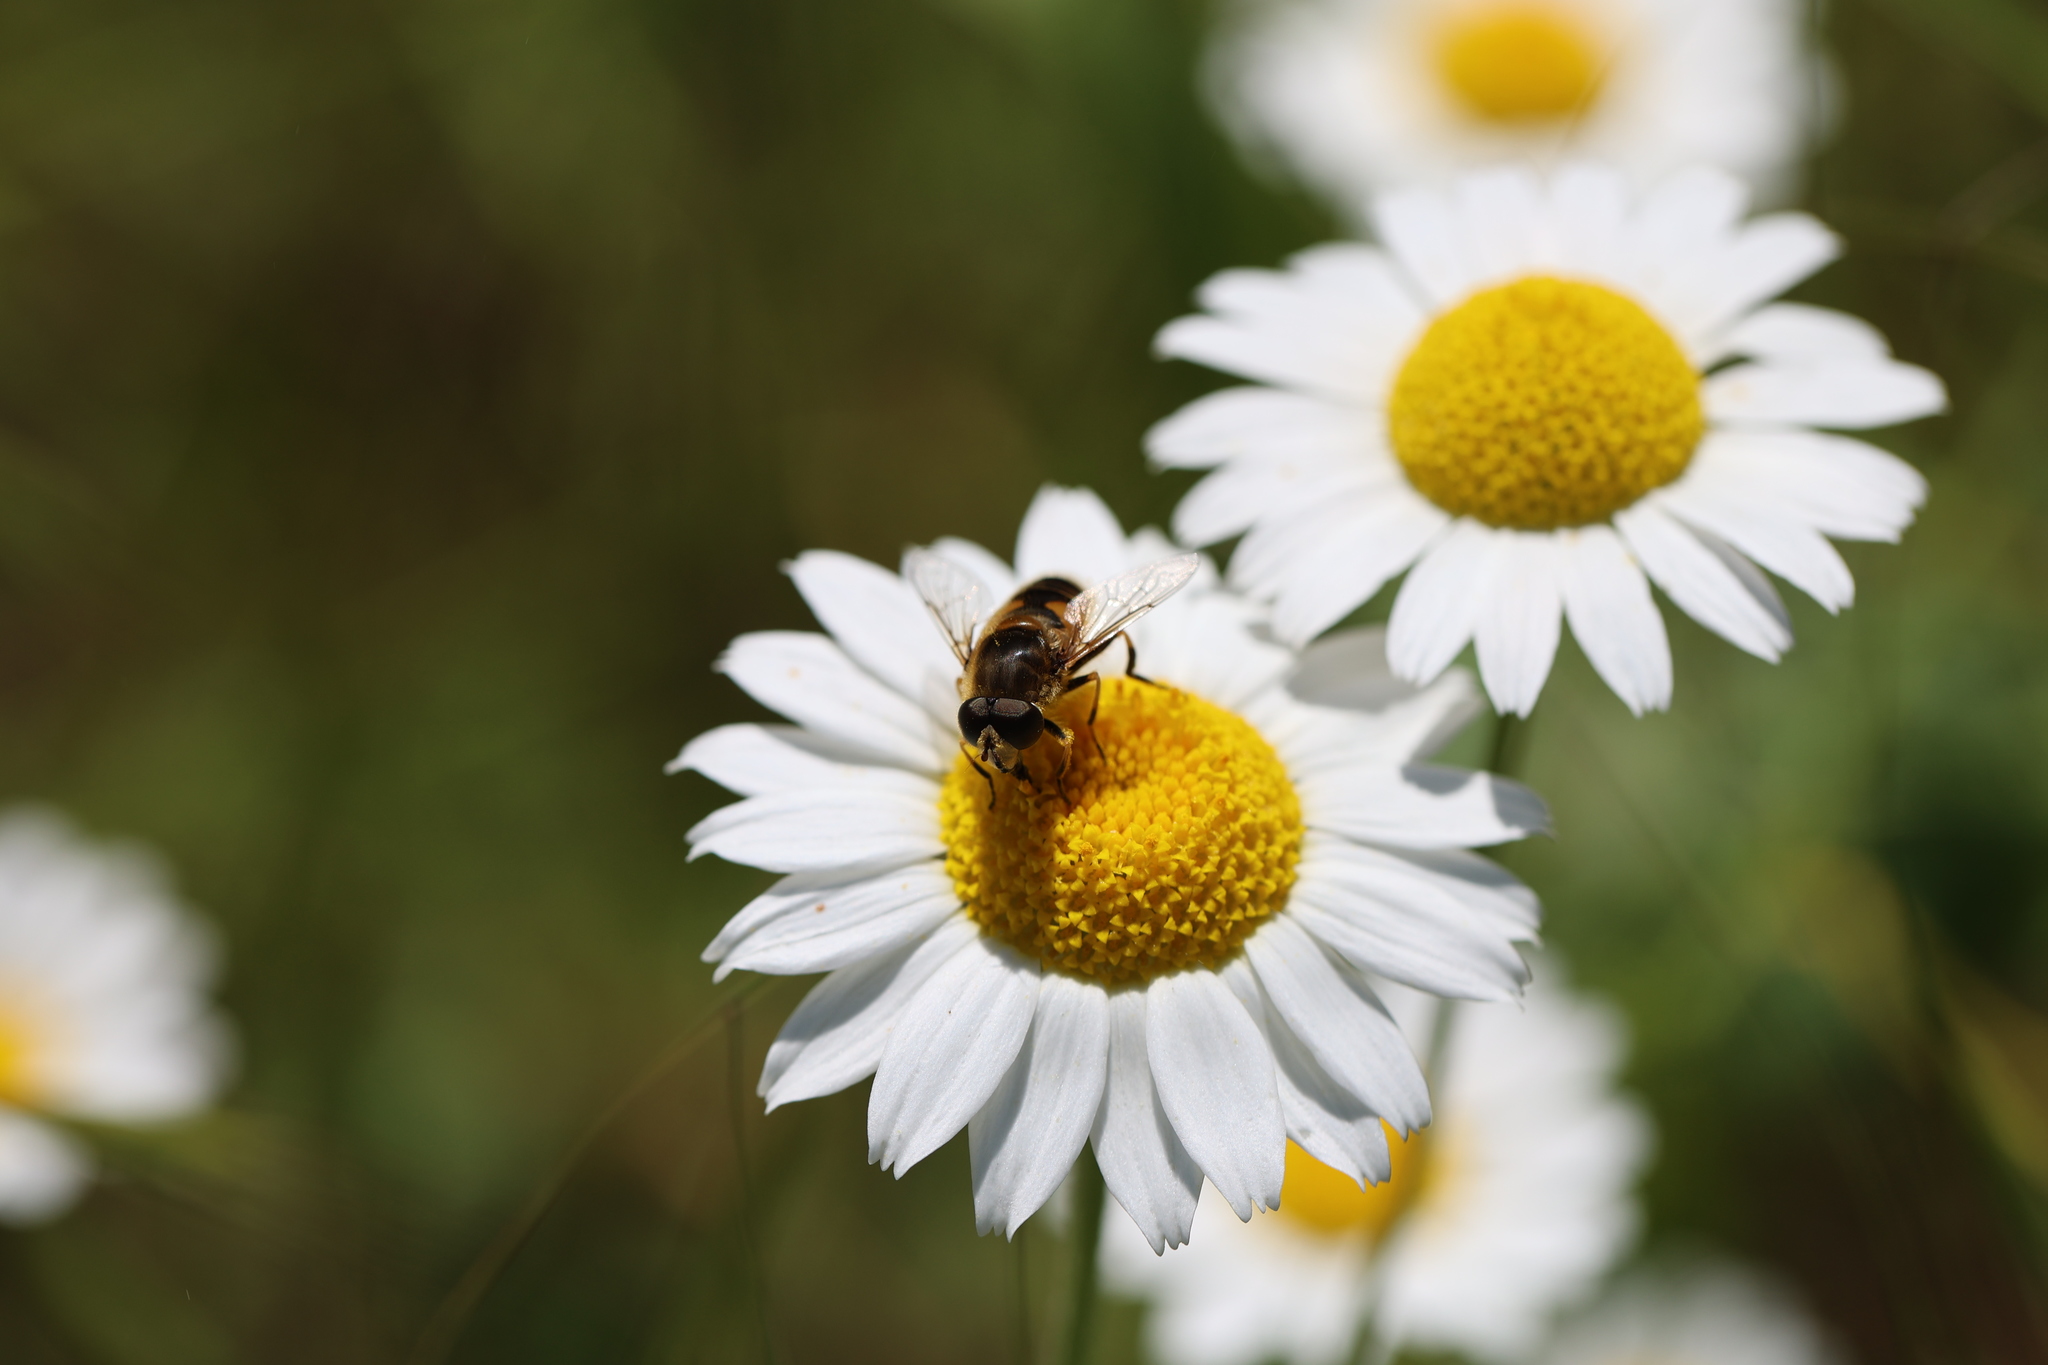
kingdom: Animalia
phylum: Arthropoda
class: Insecta
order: Diptera
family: Syrphidae
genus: Eristalis
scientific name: Eristalis nemorum
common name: Orange-spined drone fly
